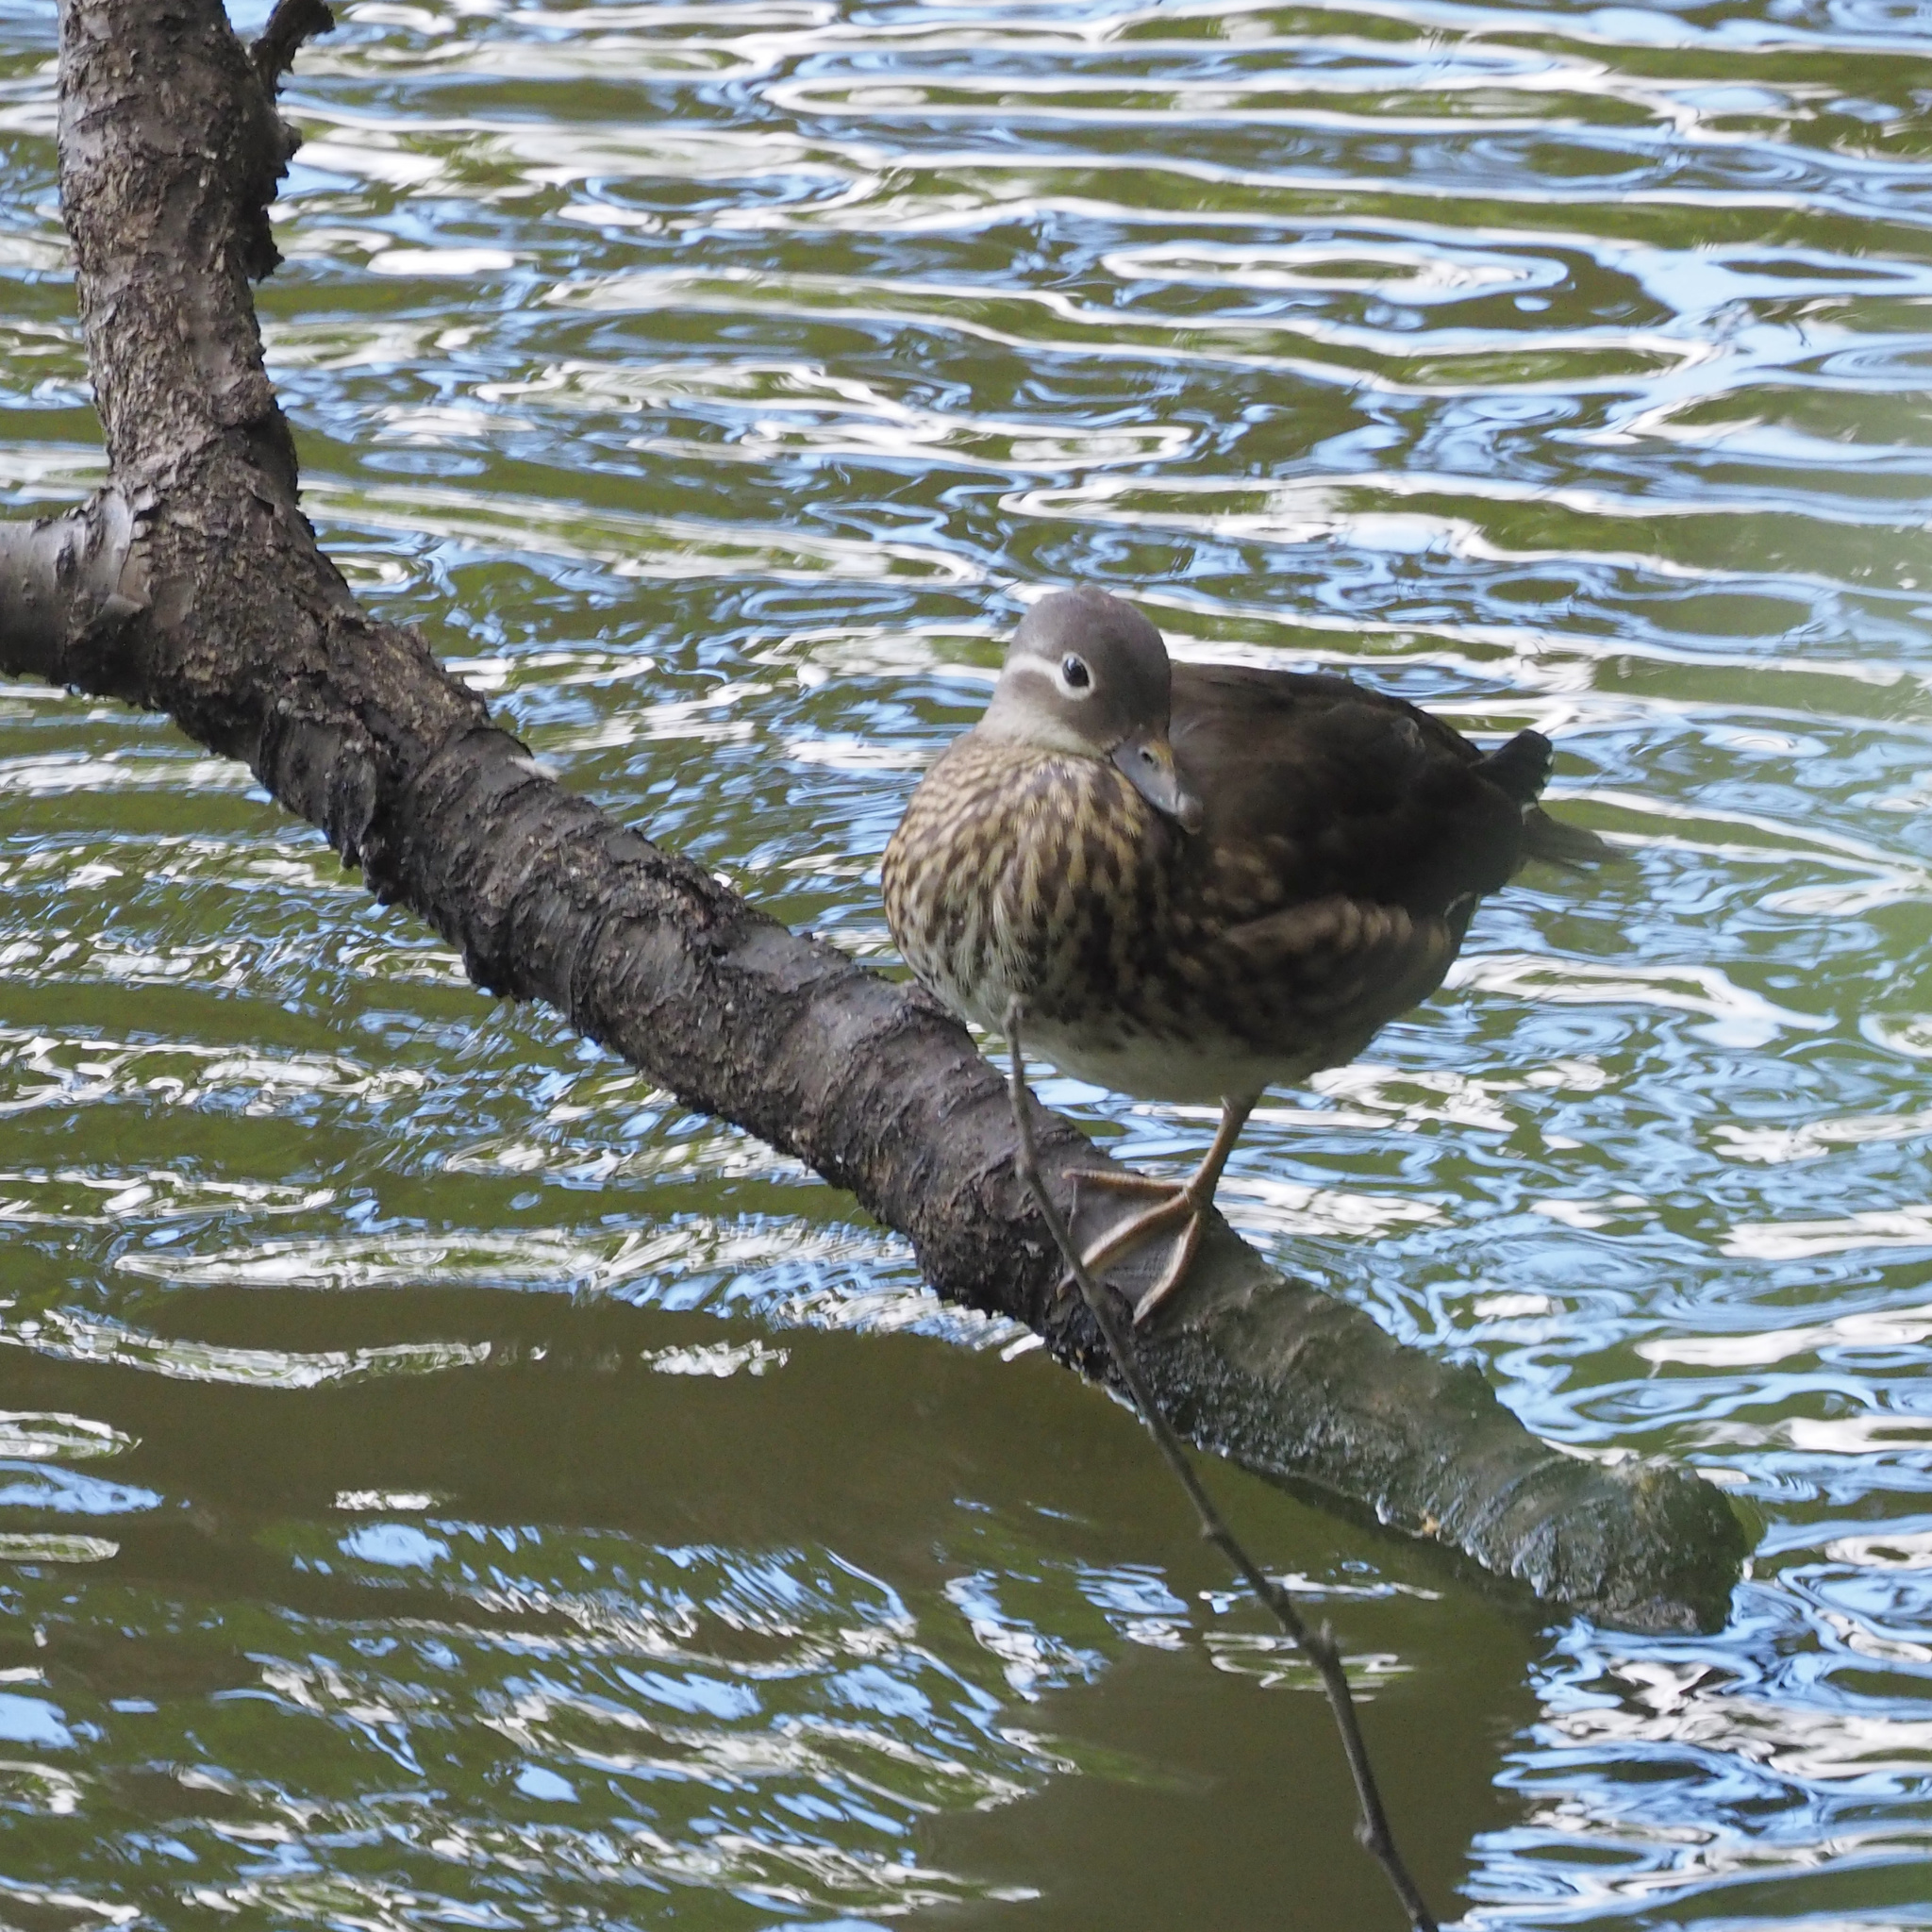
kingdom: Animalia
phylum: Chordata
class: Aves
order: Anseriformes
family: Anatidae
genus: Aix
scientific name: Aix galericulata
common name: Mandarin duck
